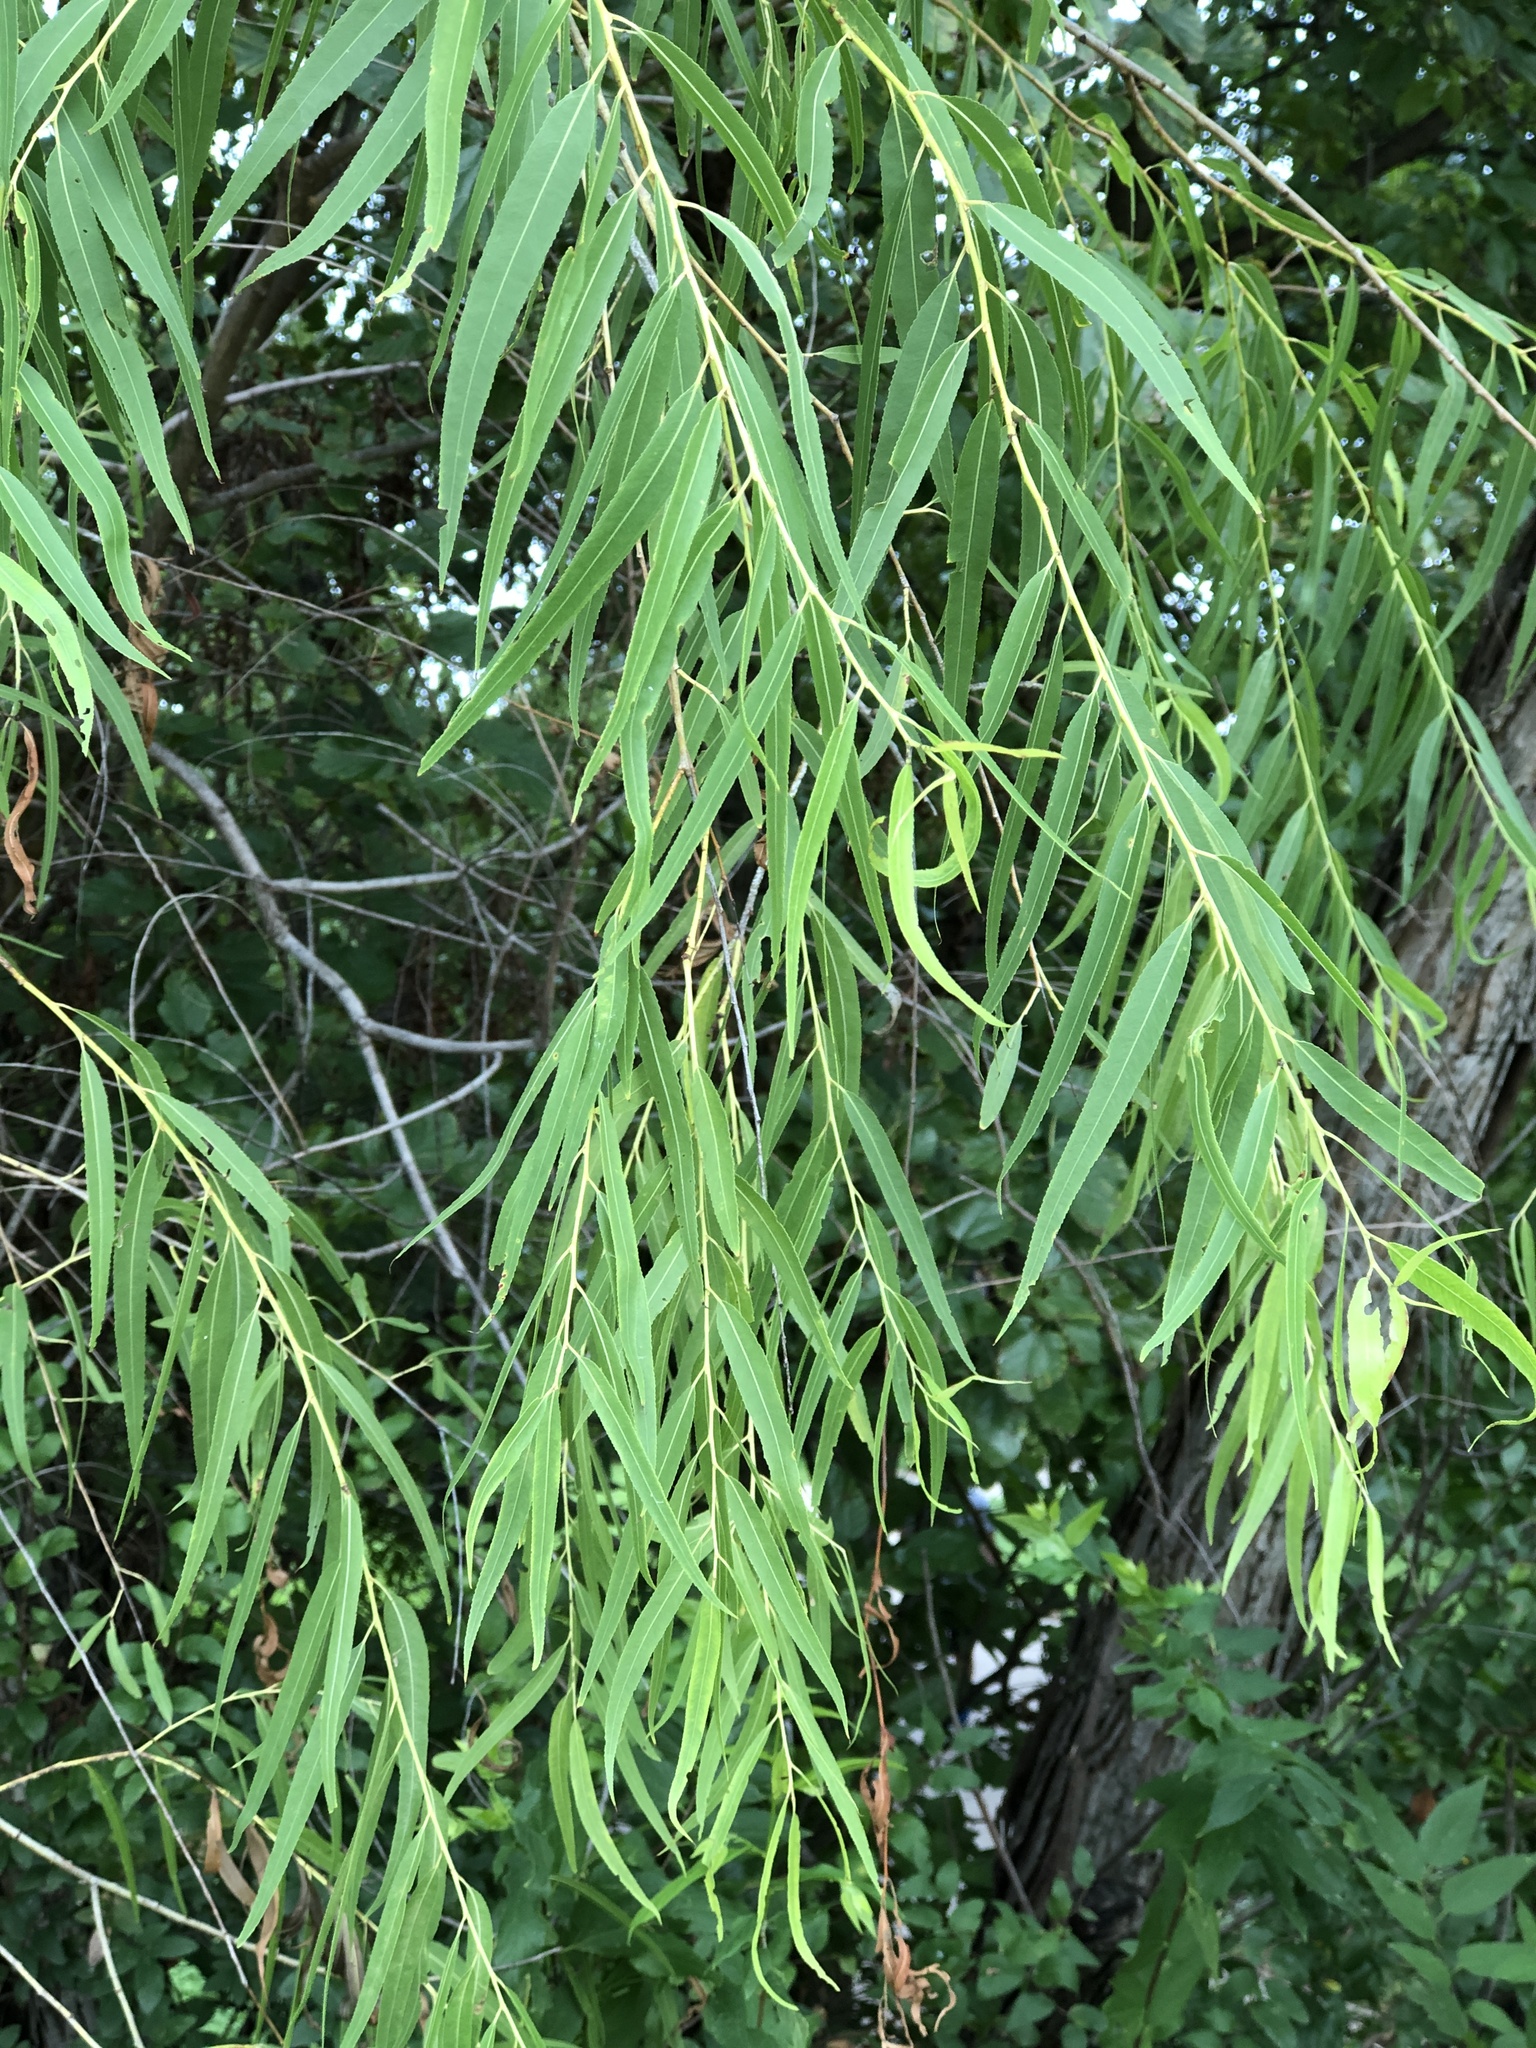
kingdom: Plantae
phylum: Tracheophyta
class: Magnoliopsida
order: Malpighiales
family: Salicaceae
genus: Salix
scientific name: Salix nigra
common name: Black willow
